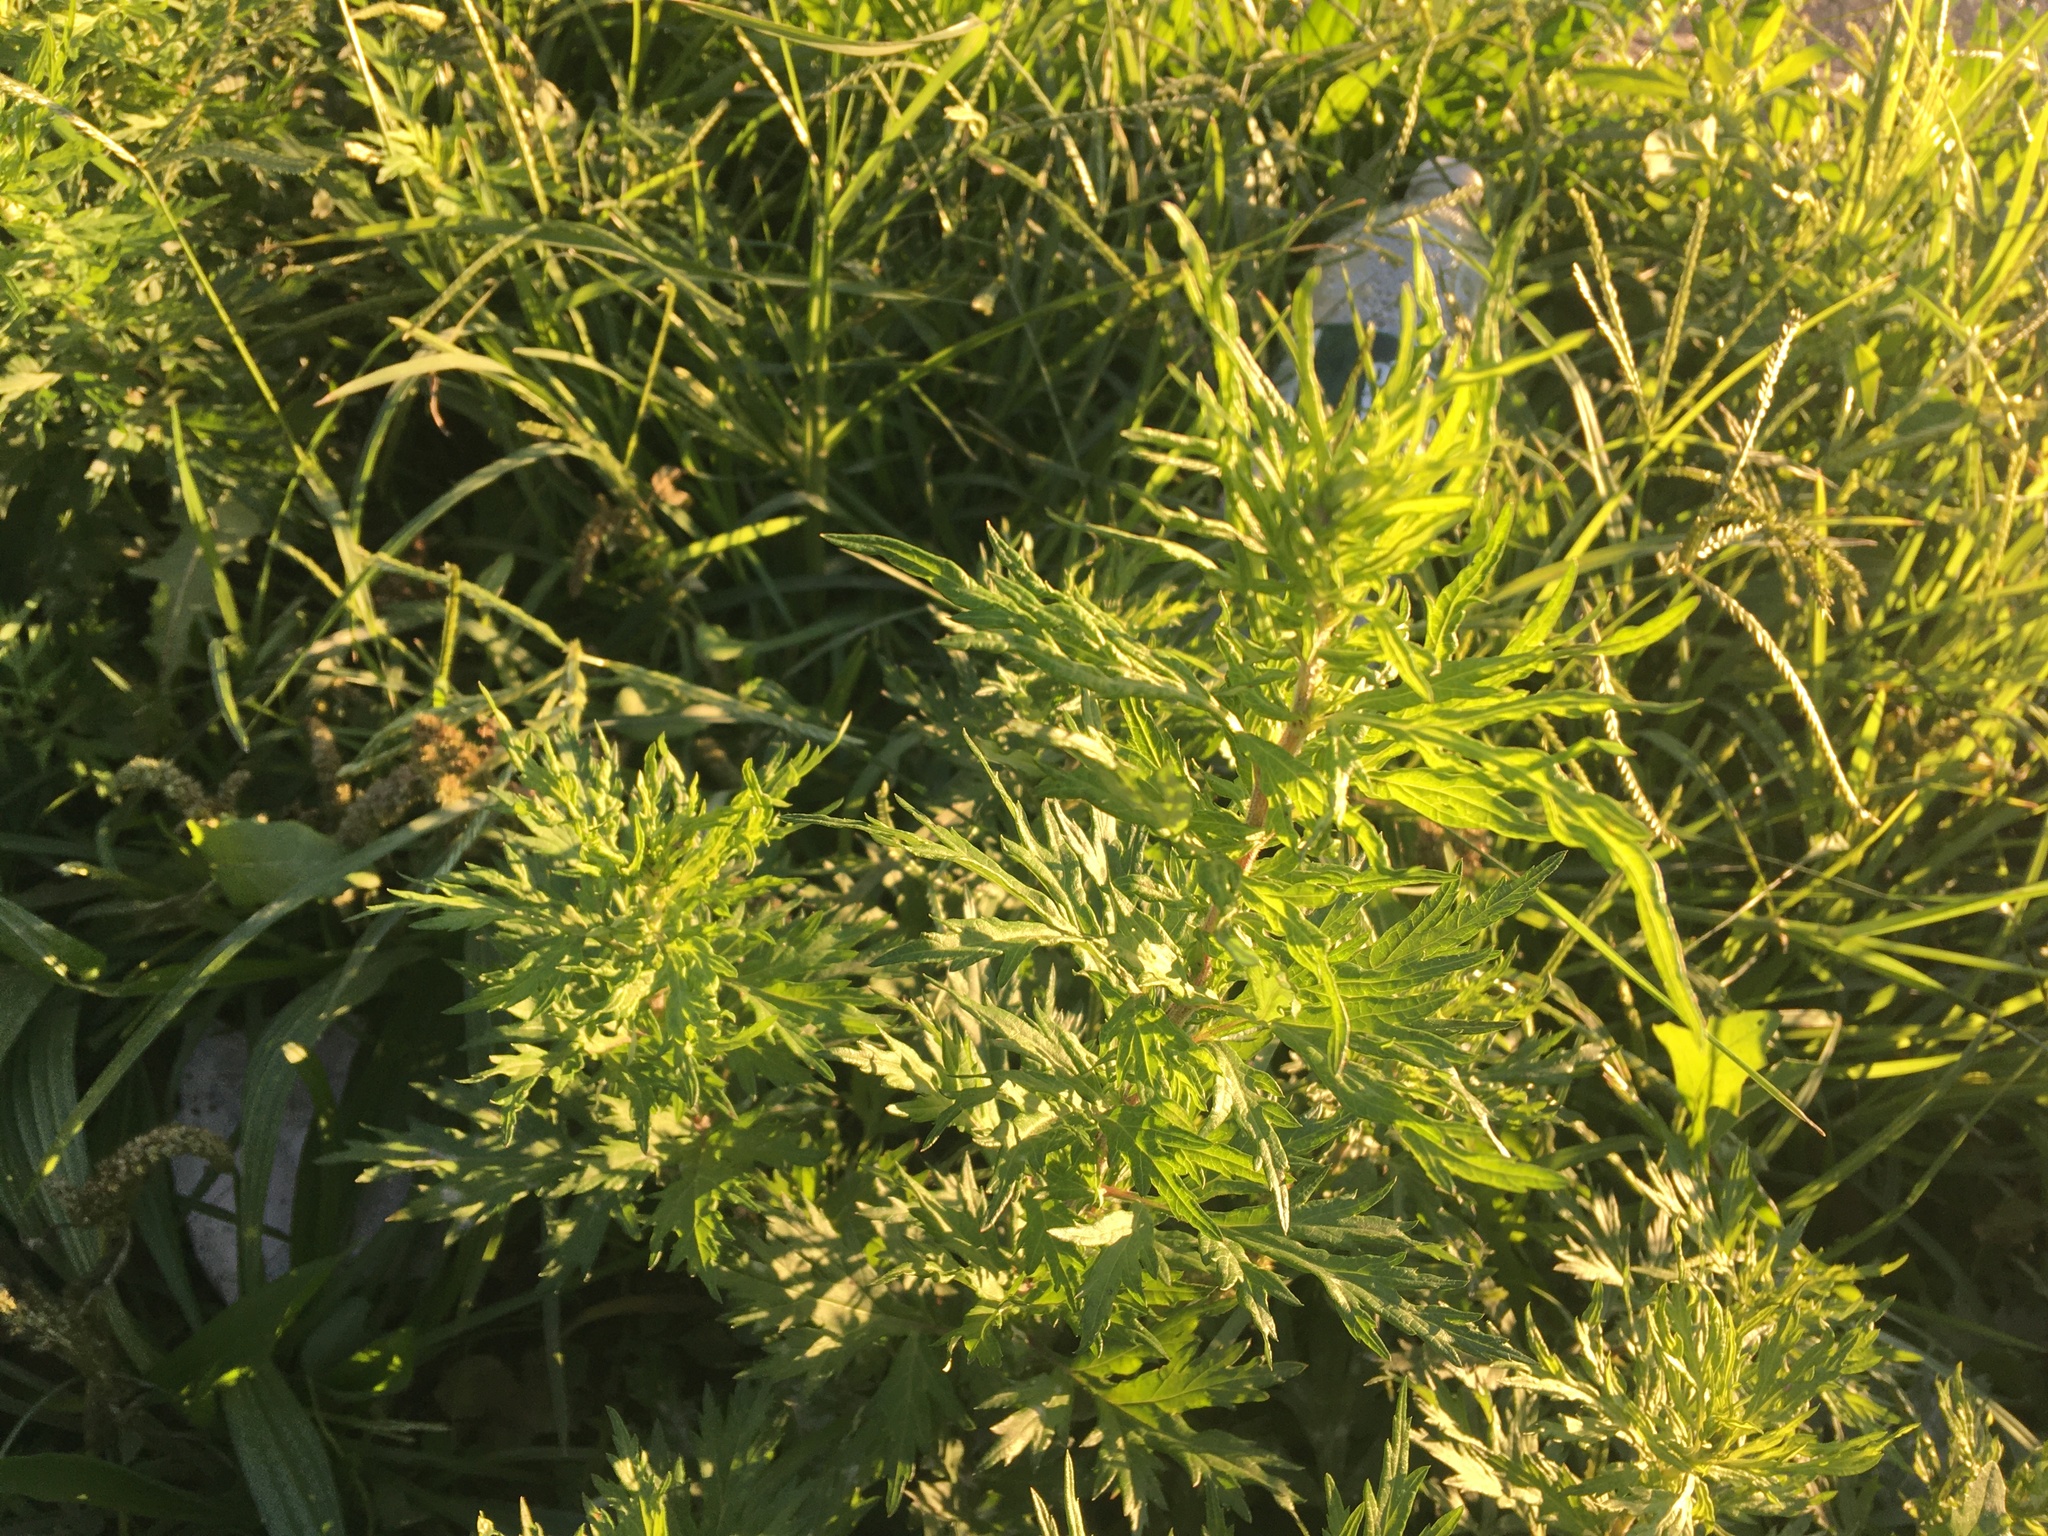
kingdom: Plantae
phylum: Tracheophyta
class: Magnoliopsida
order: Asterales
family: Asteraceae
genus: Artemisia
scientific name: Artemisia vulgaris
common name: Mugwort
